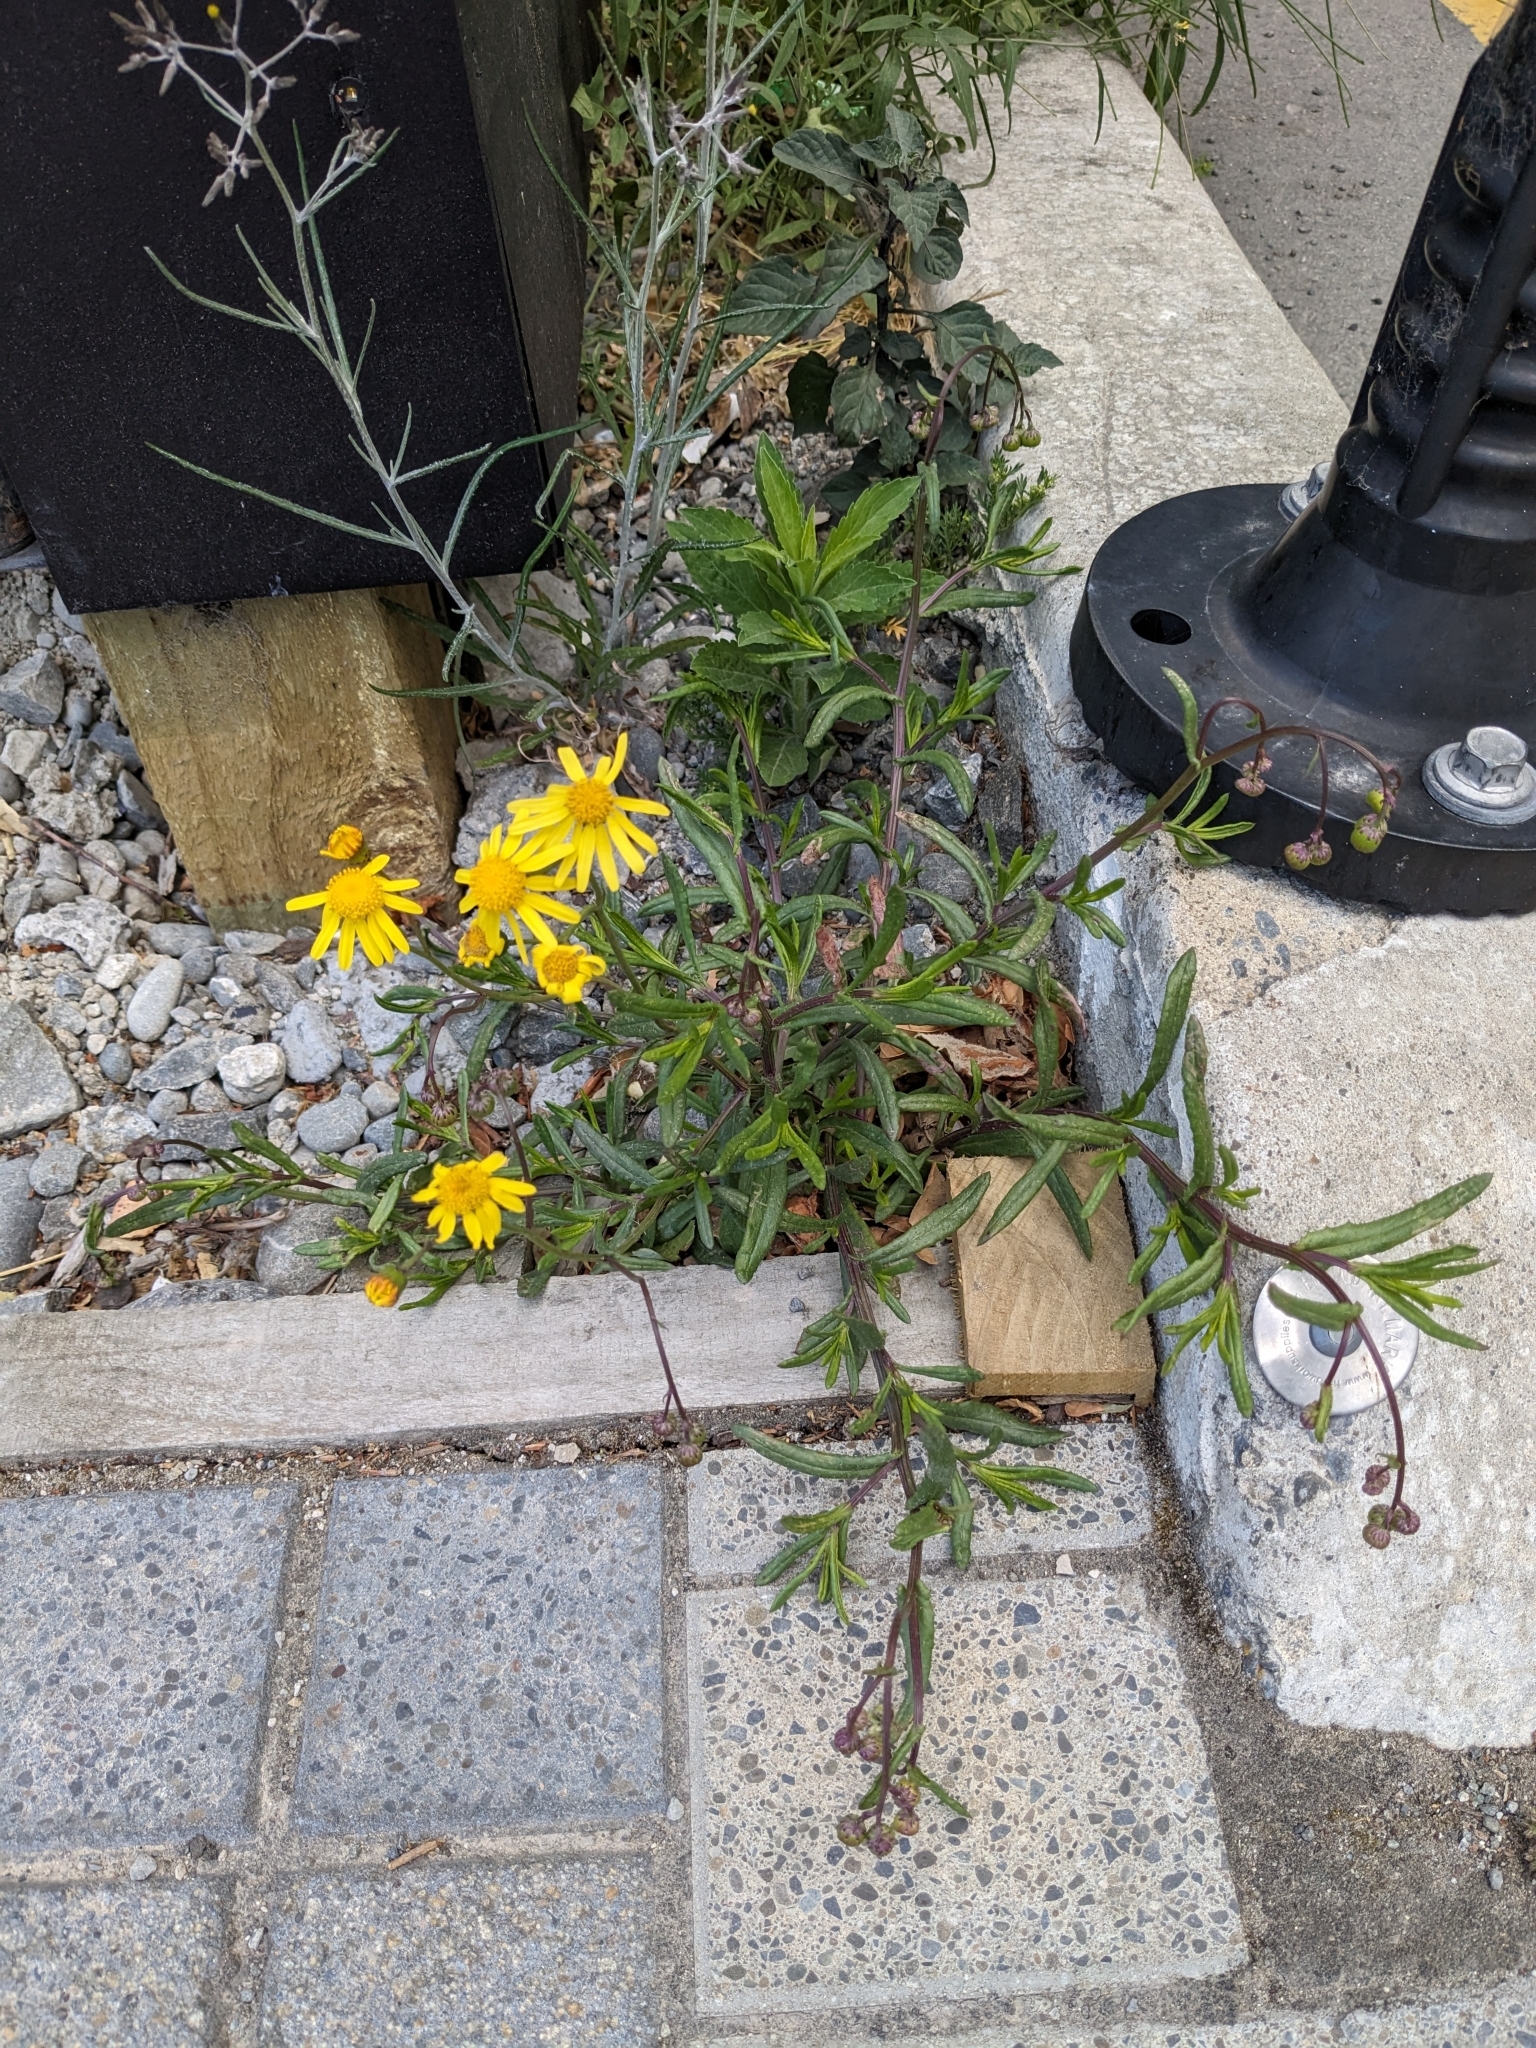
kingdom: Plantae
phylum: Tracheophyta
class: Magnoliopsida
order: Asterales
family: Asteraceae
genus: Senecio
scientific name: Senecio skirrhodon
